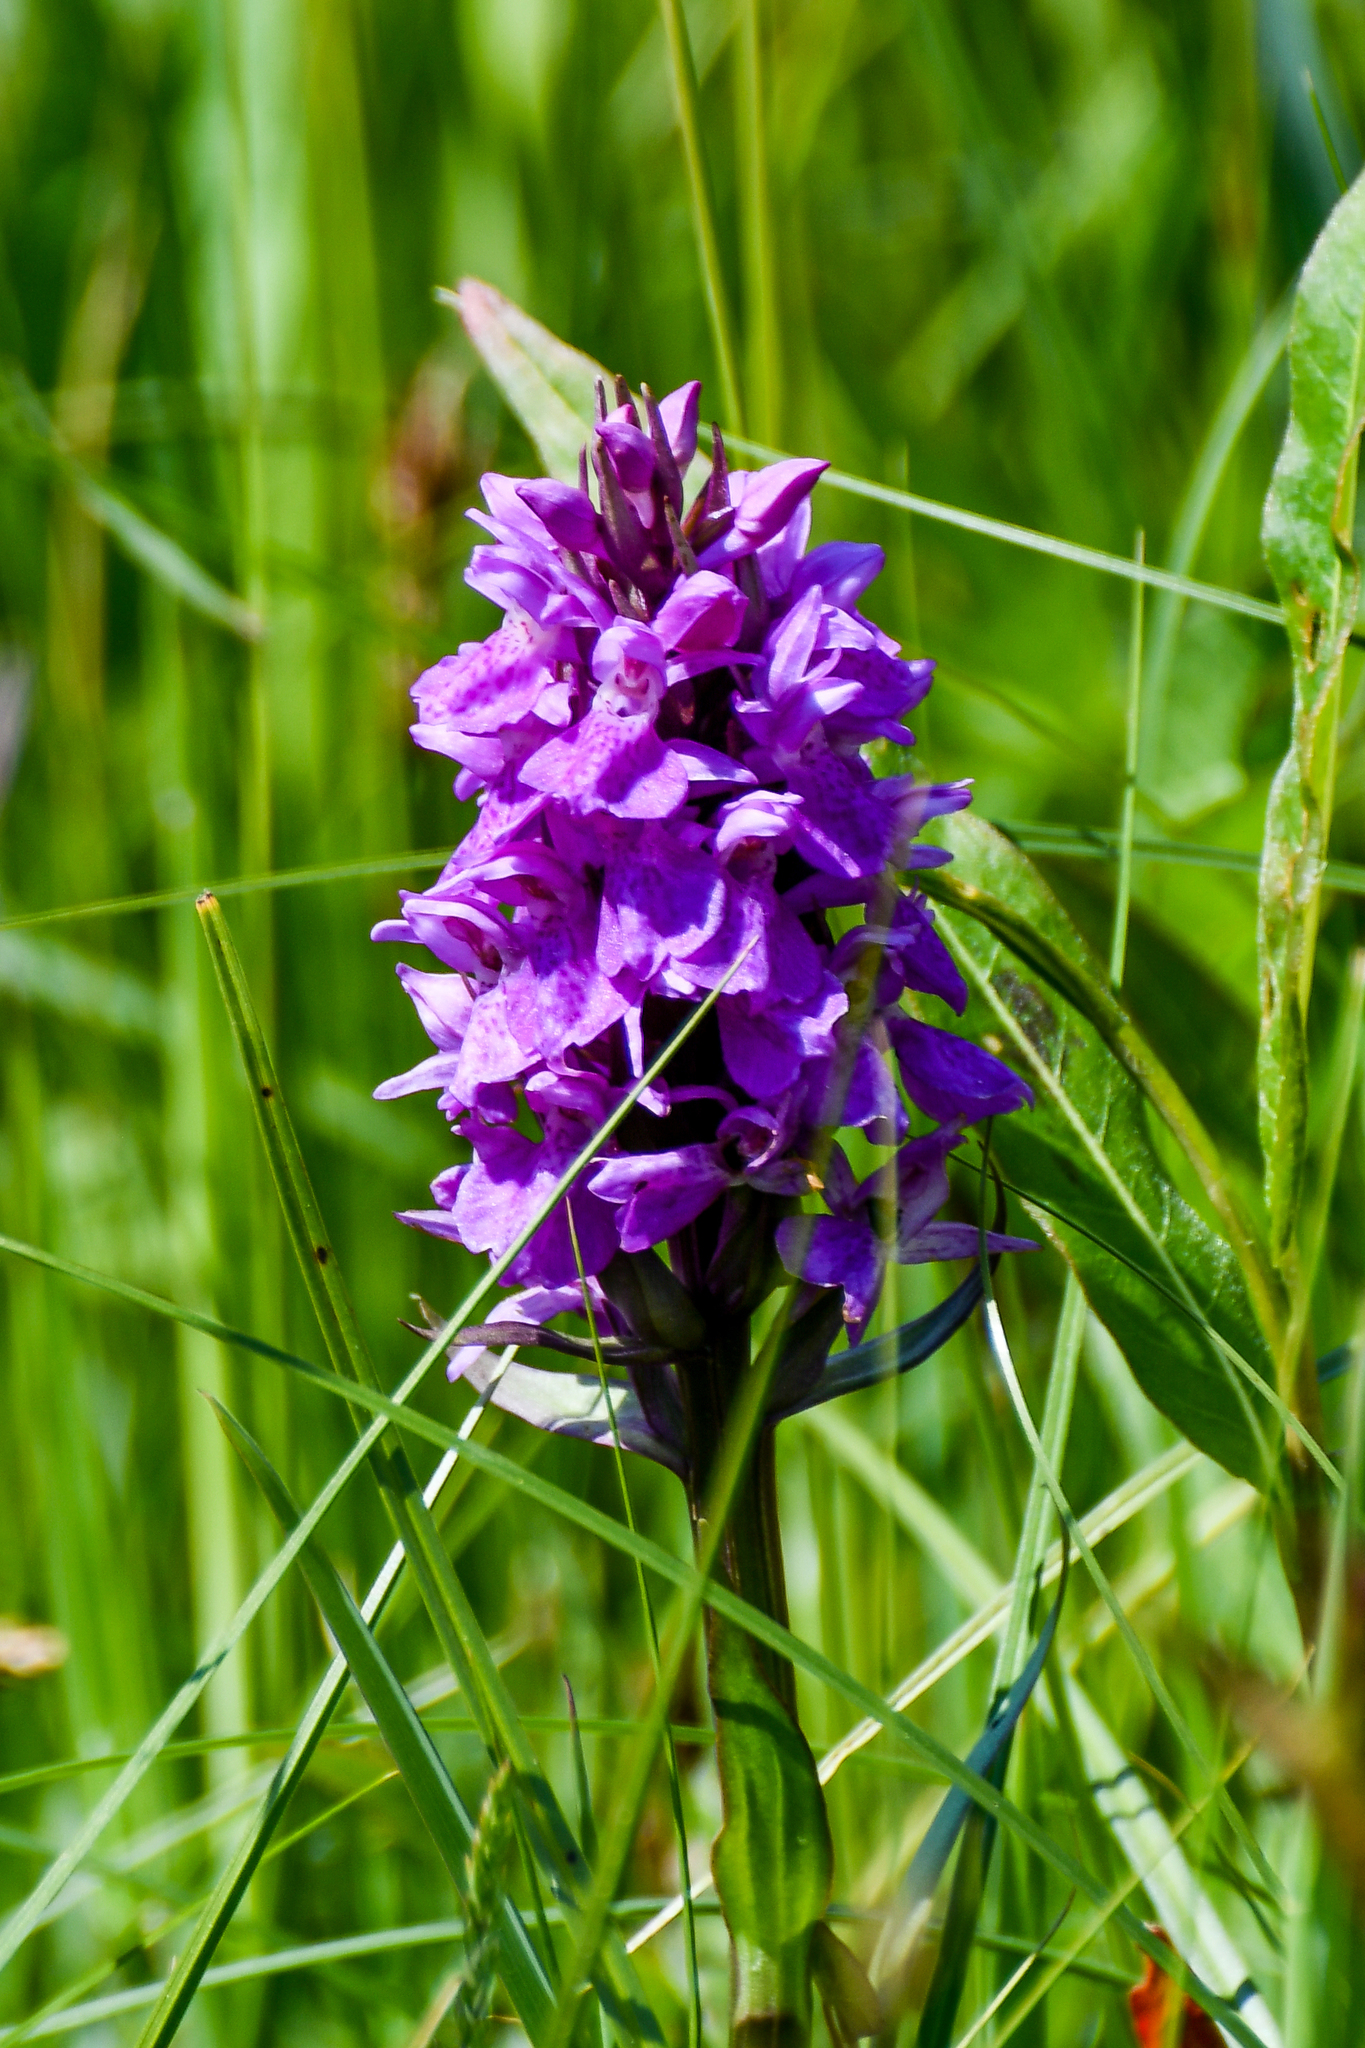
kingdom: Plantae
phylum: Tracheophyta
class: Liliopsida
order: Asparagales
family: Orchidaceae
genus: Dactylorhiza
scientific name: Dactylorhiza majalis
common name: Marsh orchid
